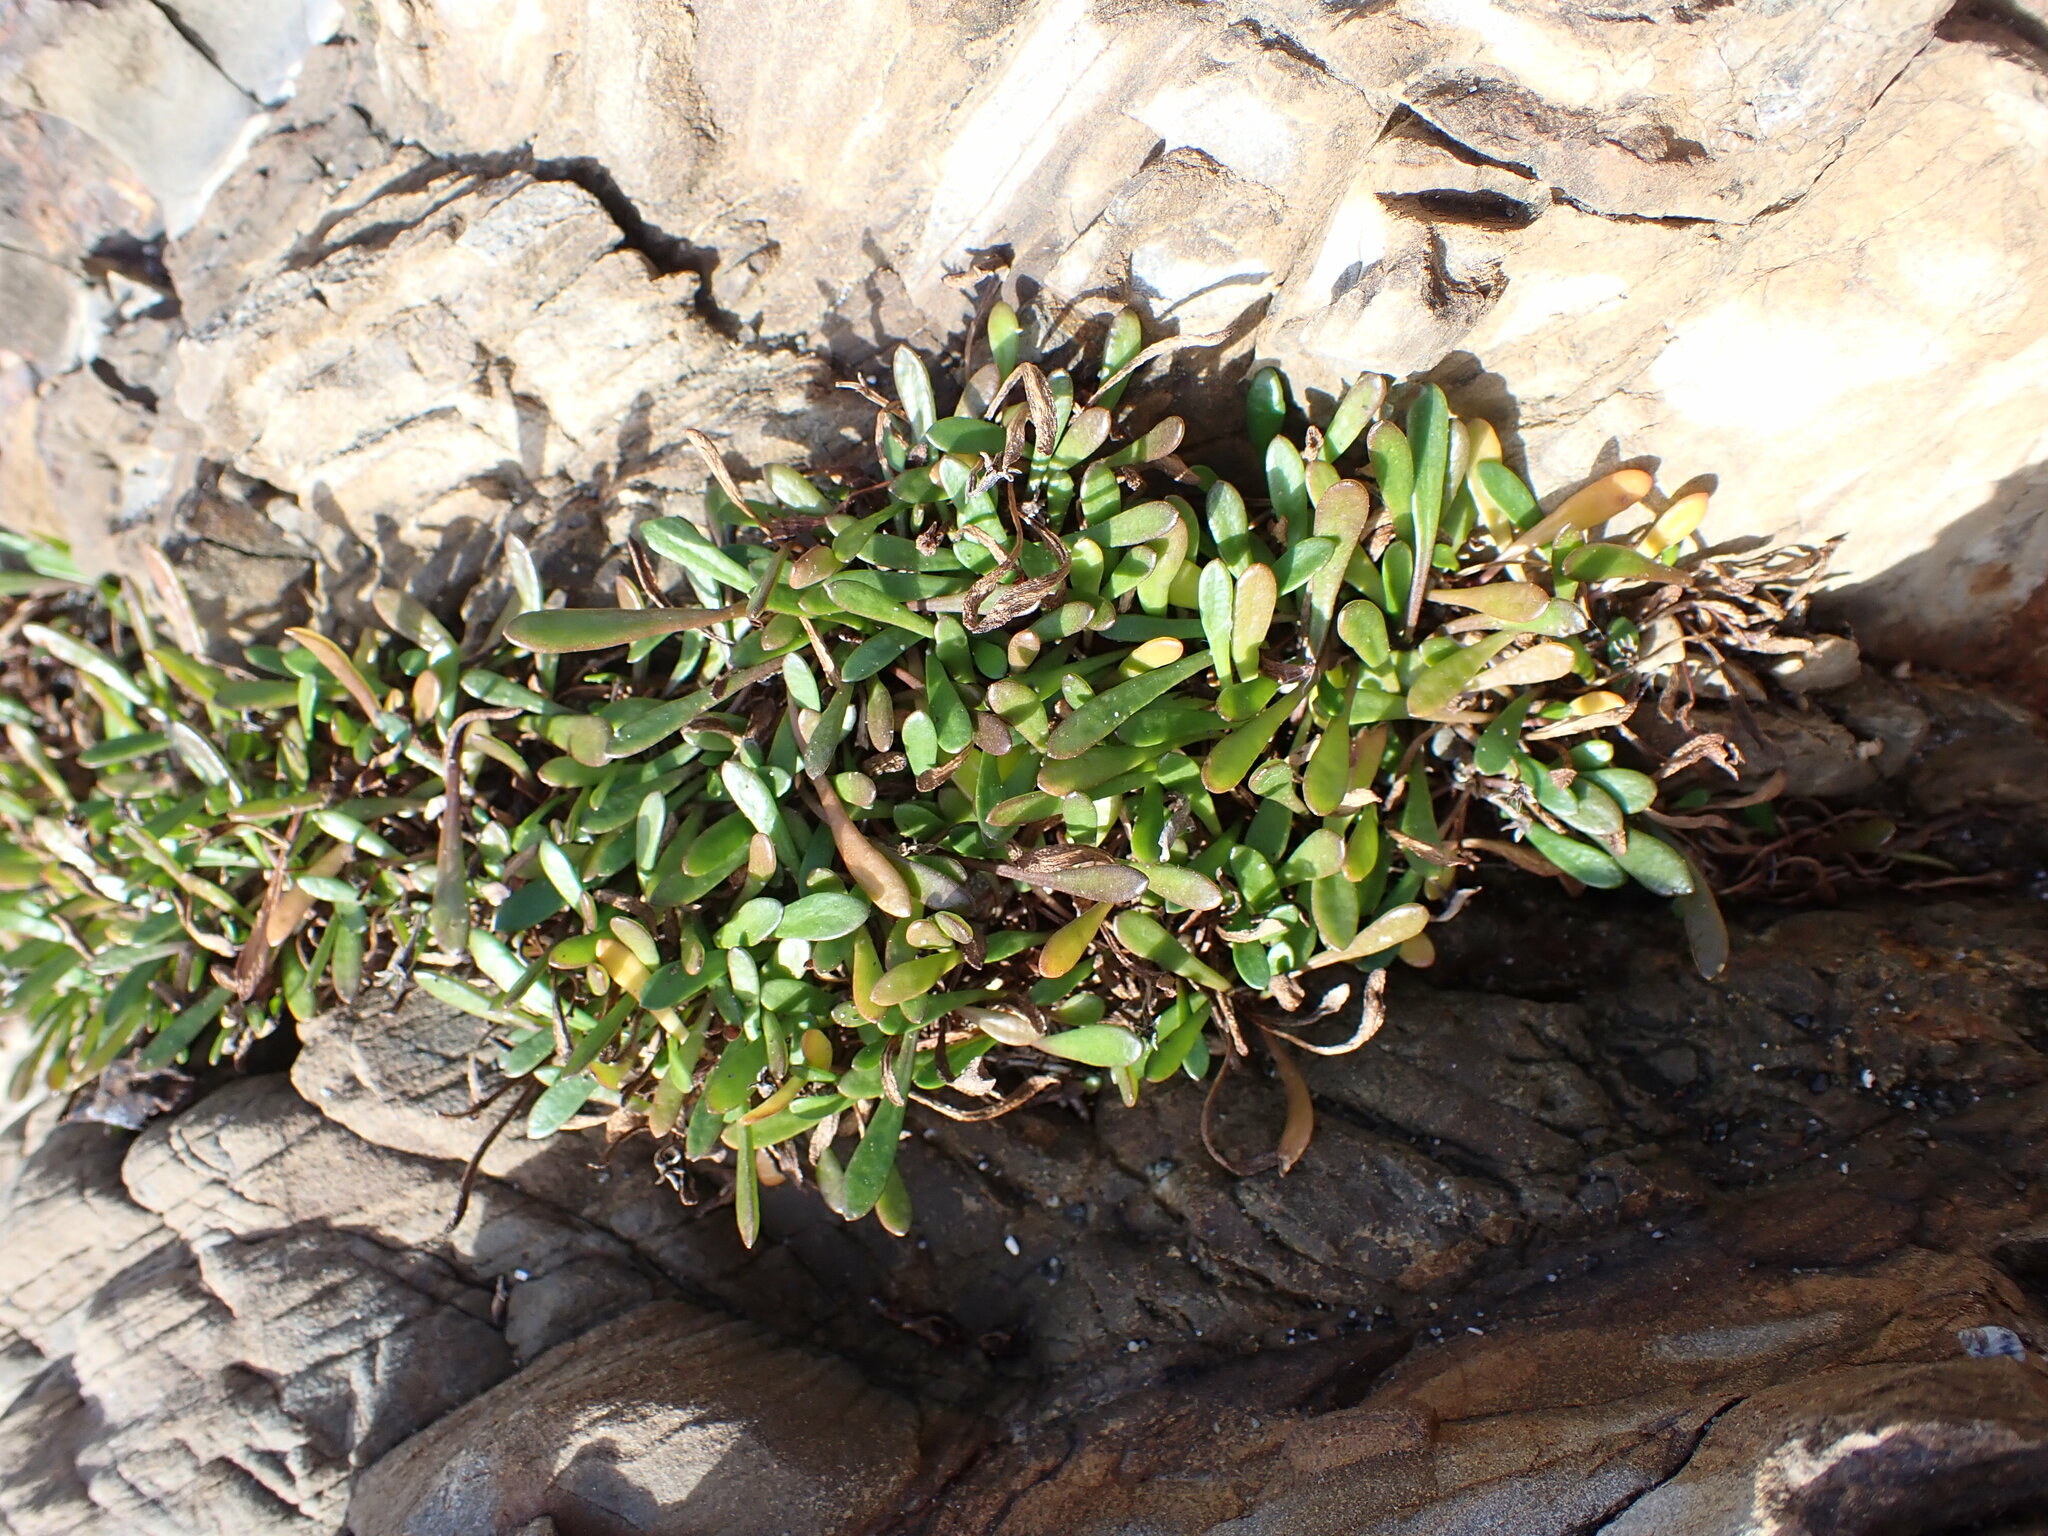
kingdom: Plantae
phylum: Tracheophyta
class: Magnoliopsida
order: Ericales
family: Primulaceae
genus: Samolus
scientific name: Samolus repens
